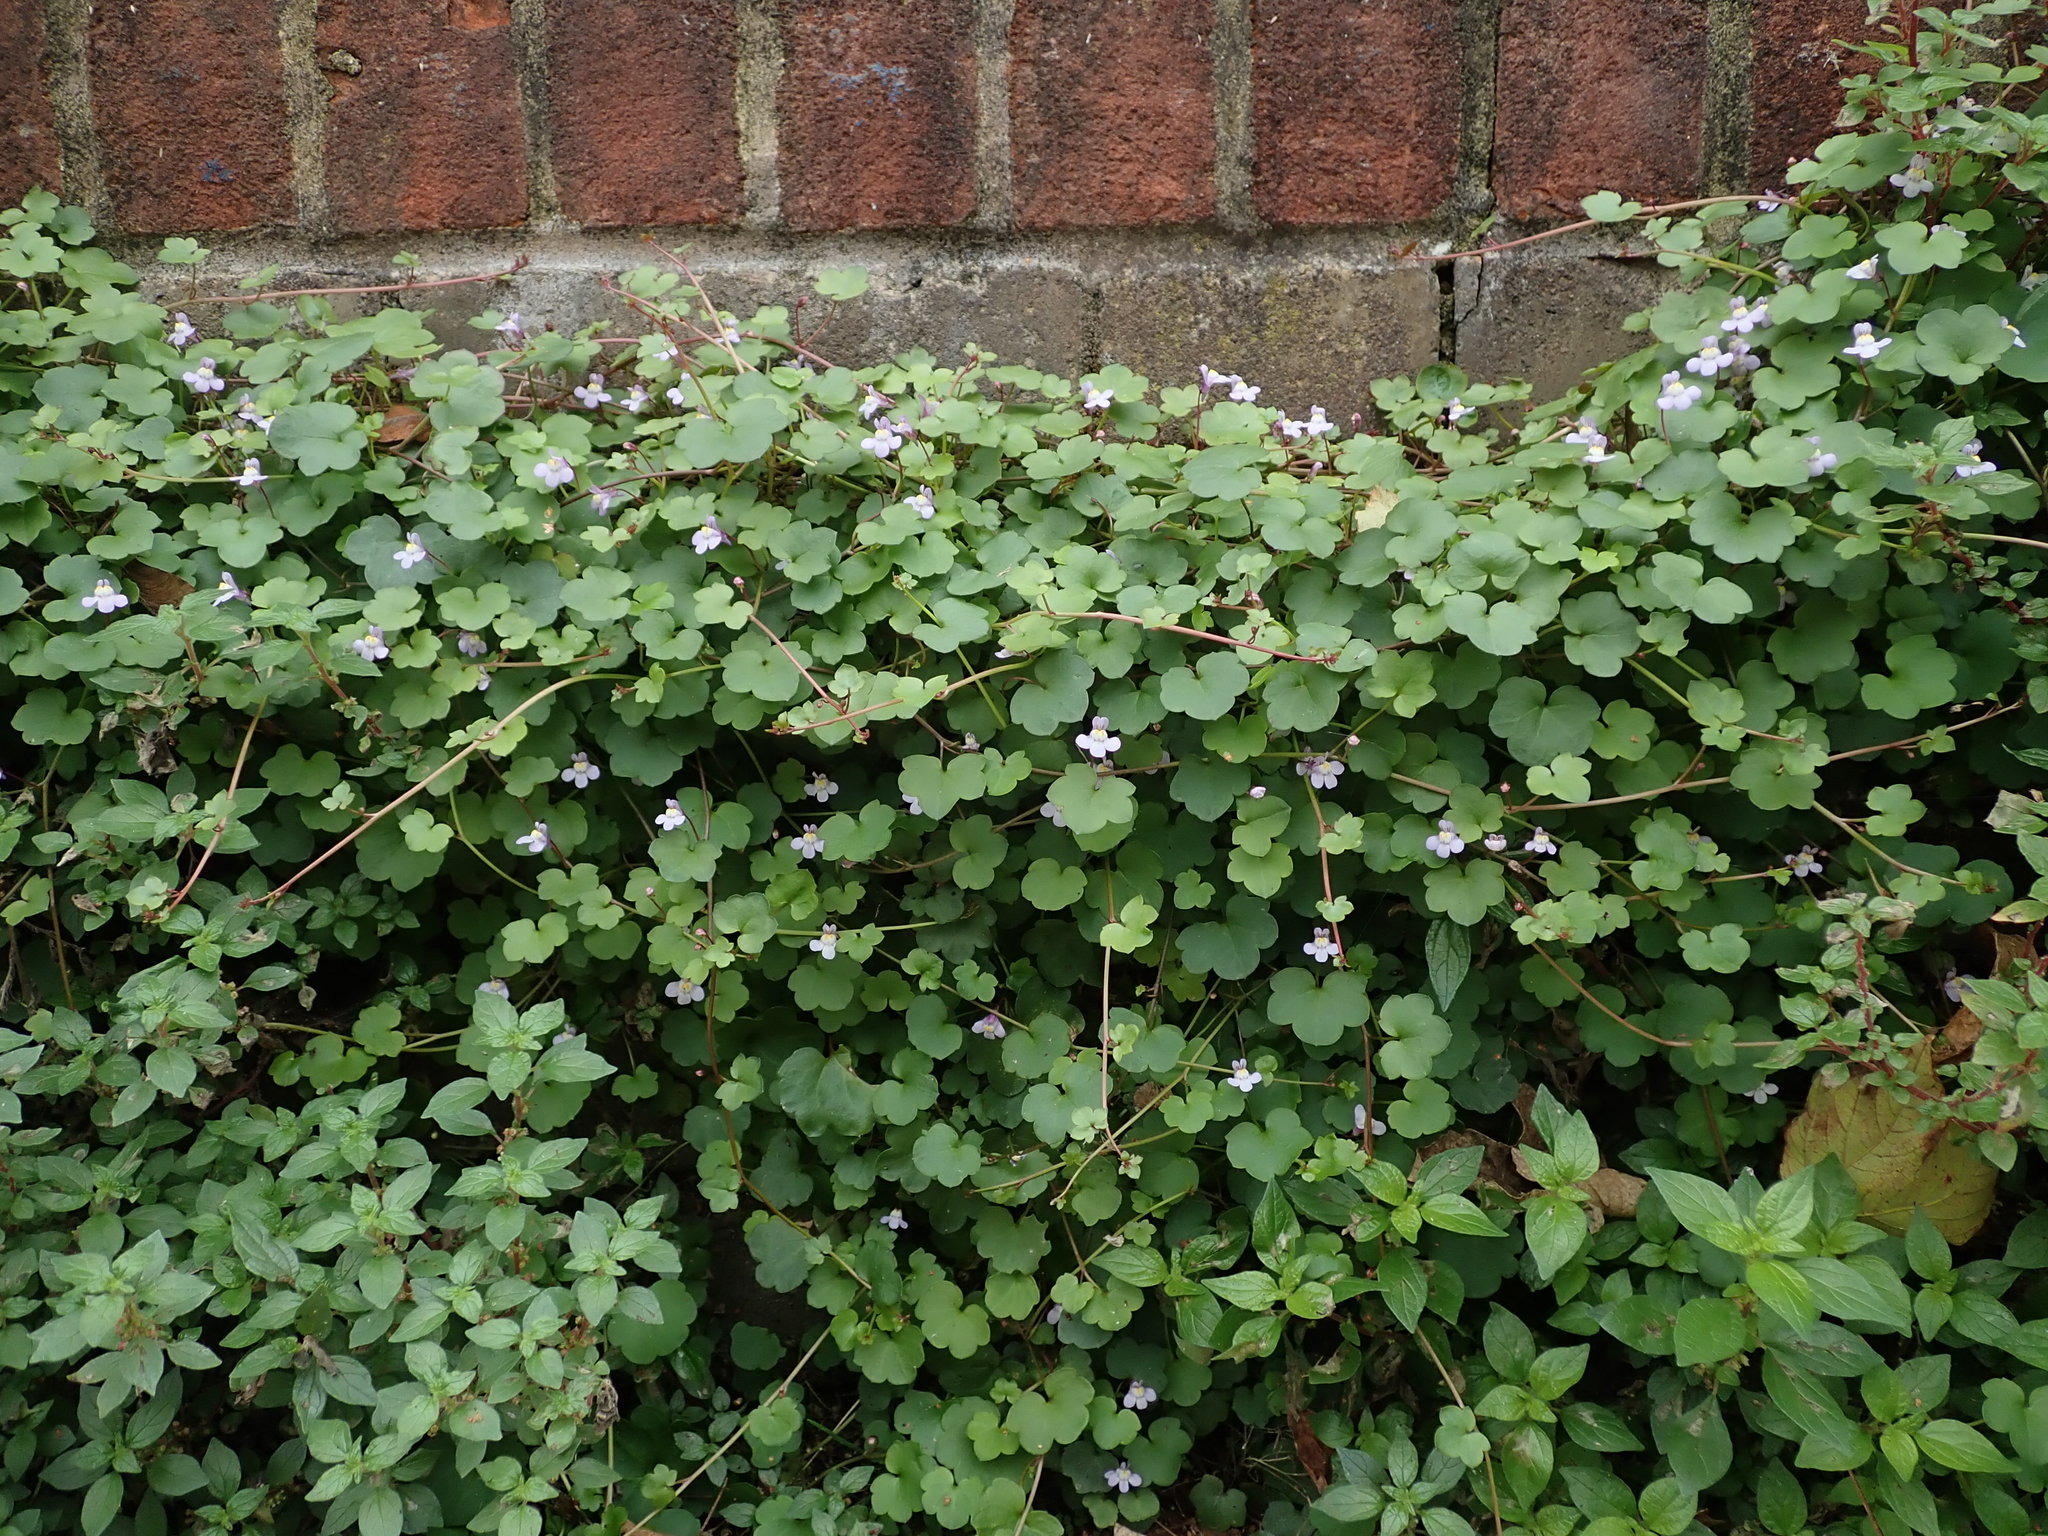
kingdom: Plantae
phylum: Tracheophyta
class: Magnoliopsida
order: Lamiales
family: Plantaginaceae
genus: Cymbalaria
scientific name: Cymbalaria muralis
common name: Ivy-leaved toadflax
